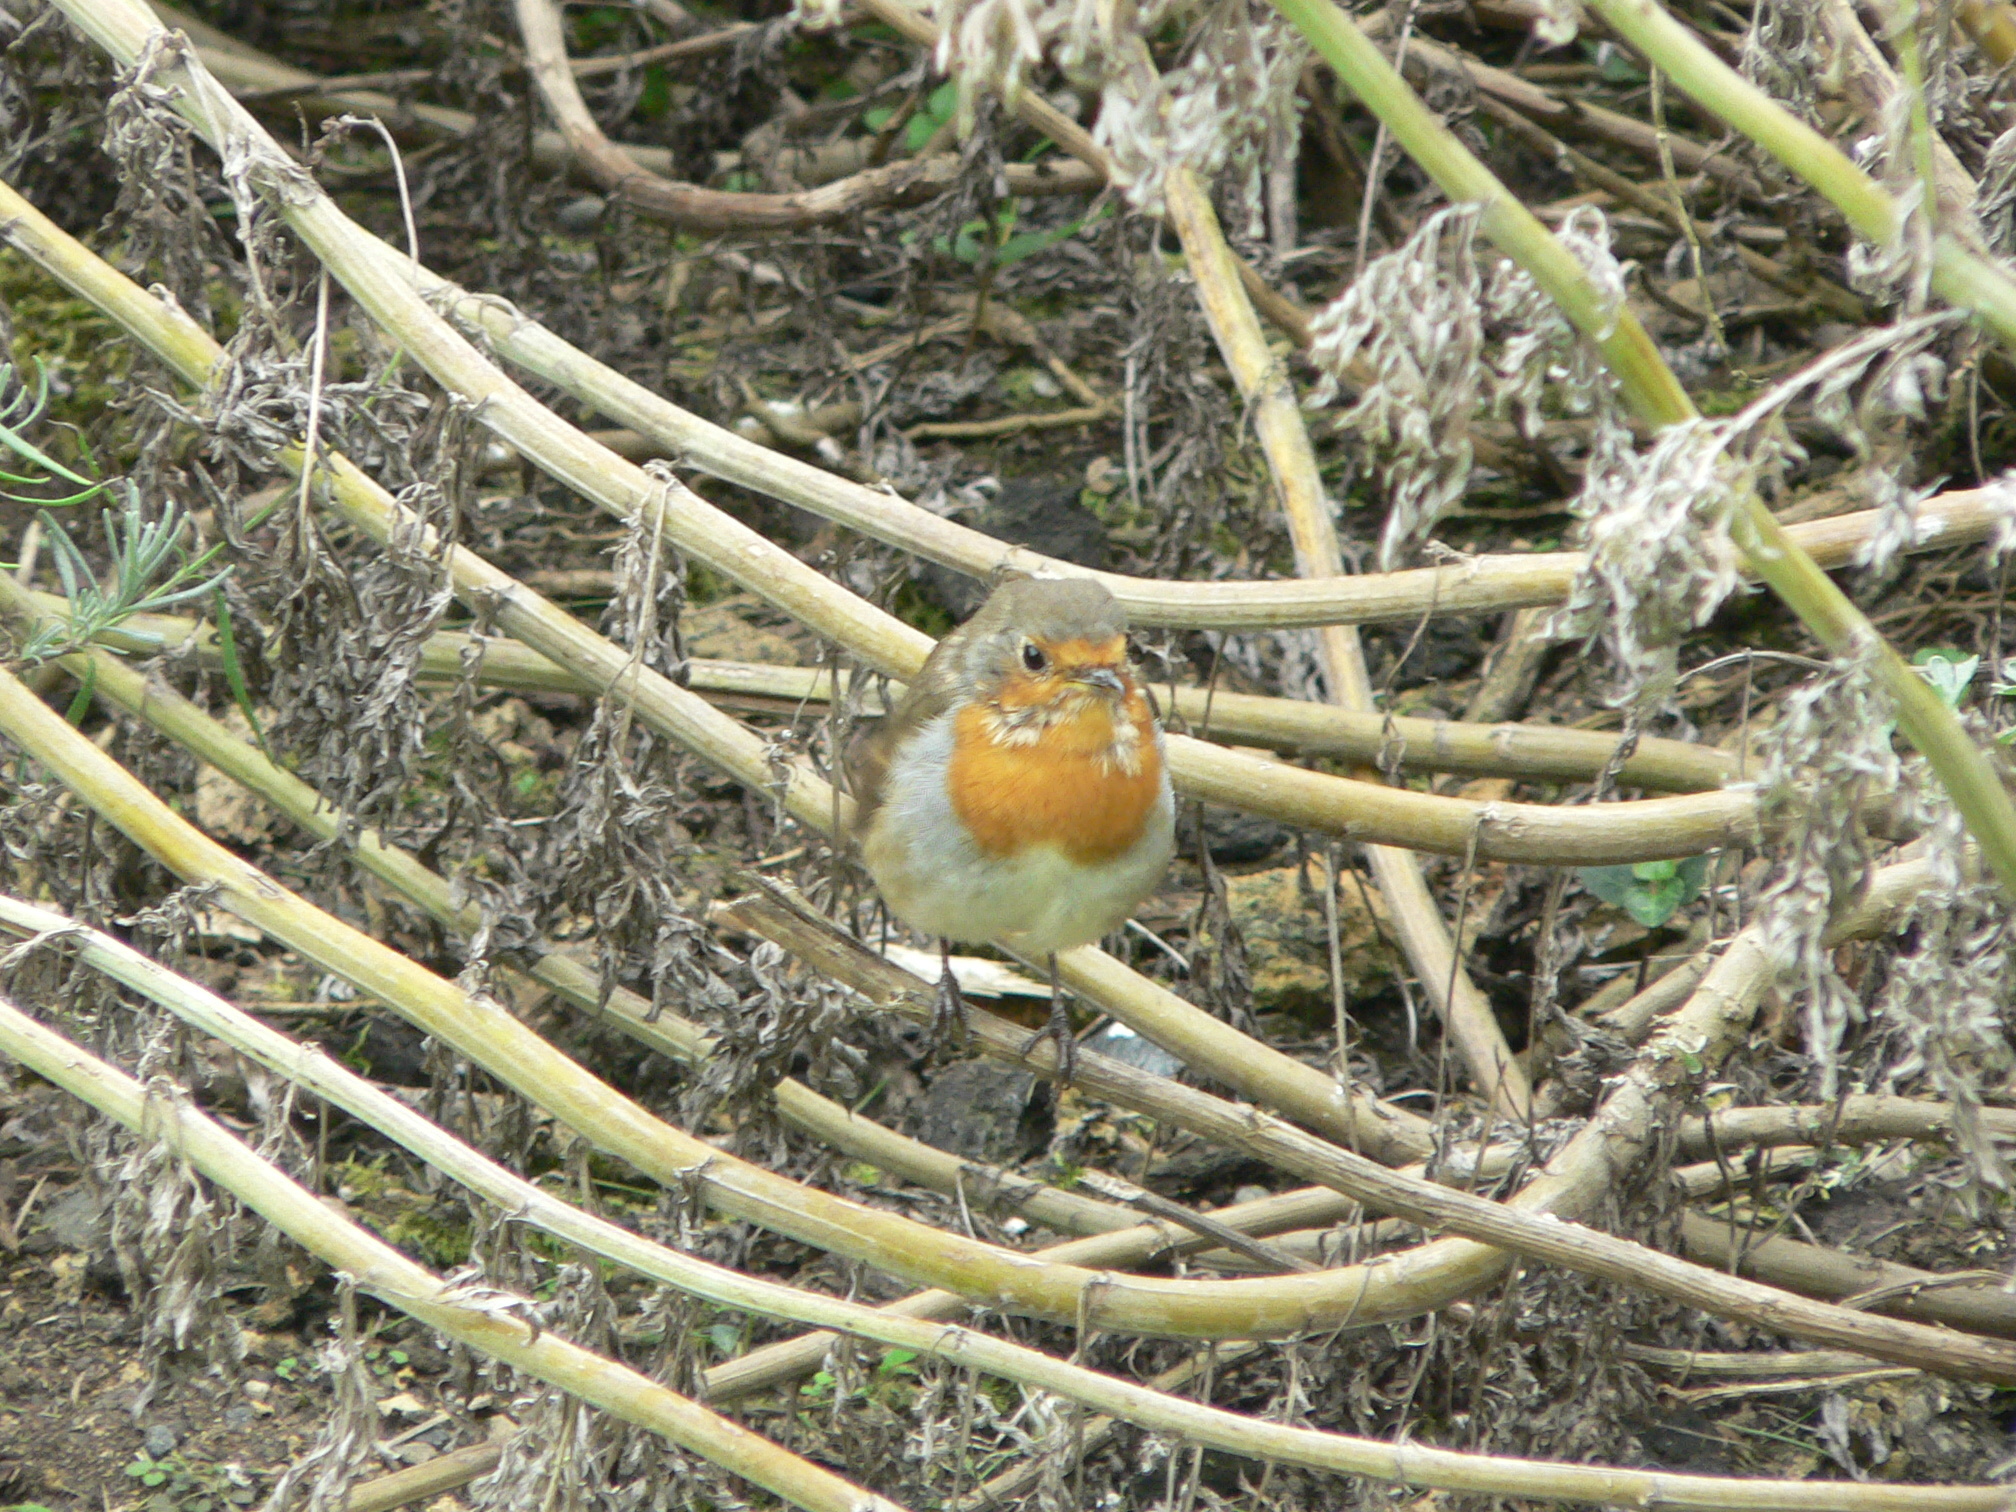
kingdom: Animalia
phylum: Chordata
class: Aves
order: Passeriformes
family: Muscicapidae
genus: Erithacus
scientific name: Erithacus rubecula
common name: European robin
